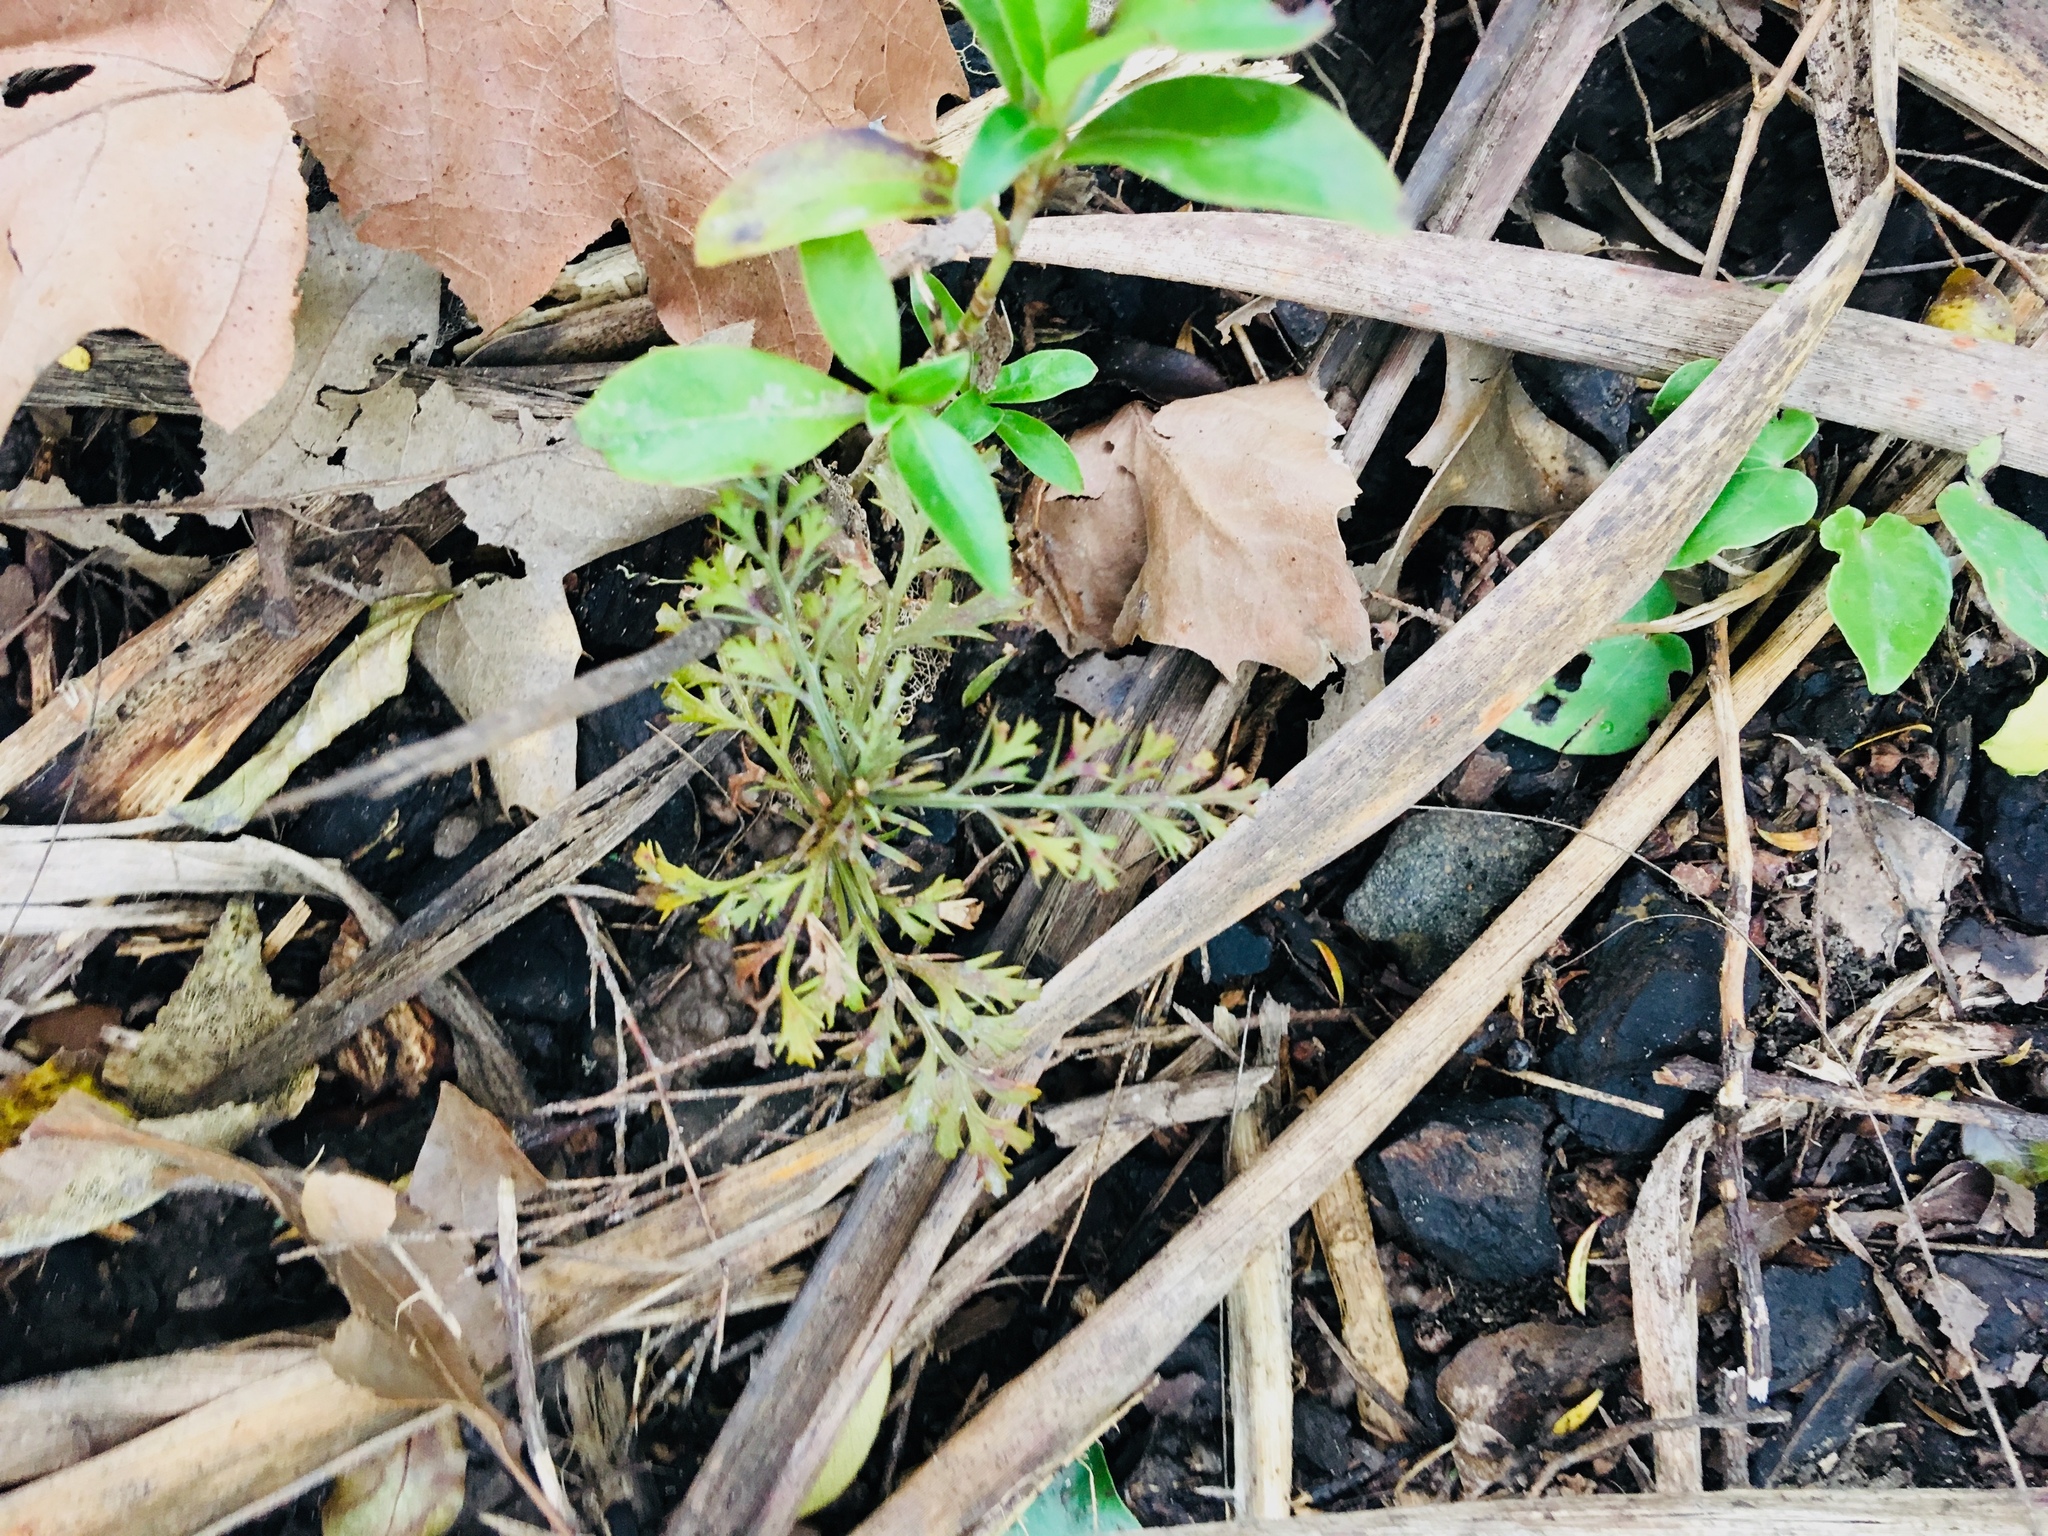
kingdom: Plantae
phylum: Tracheophyta
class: Pinopsida
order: Pinales
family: Phyllocladaceae
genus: Phyllocladus
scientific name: Phyllocladus trichomanoides
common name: Celery pine
